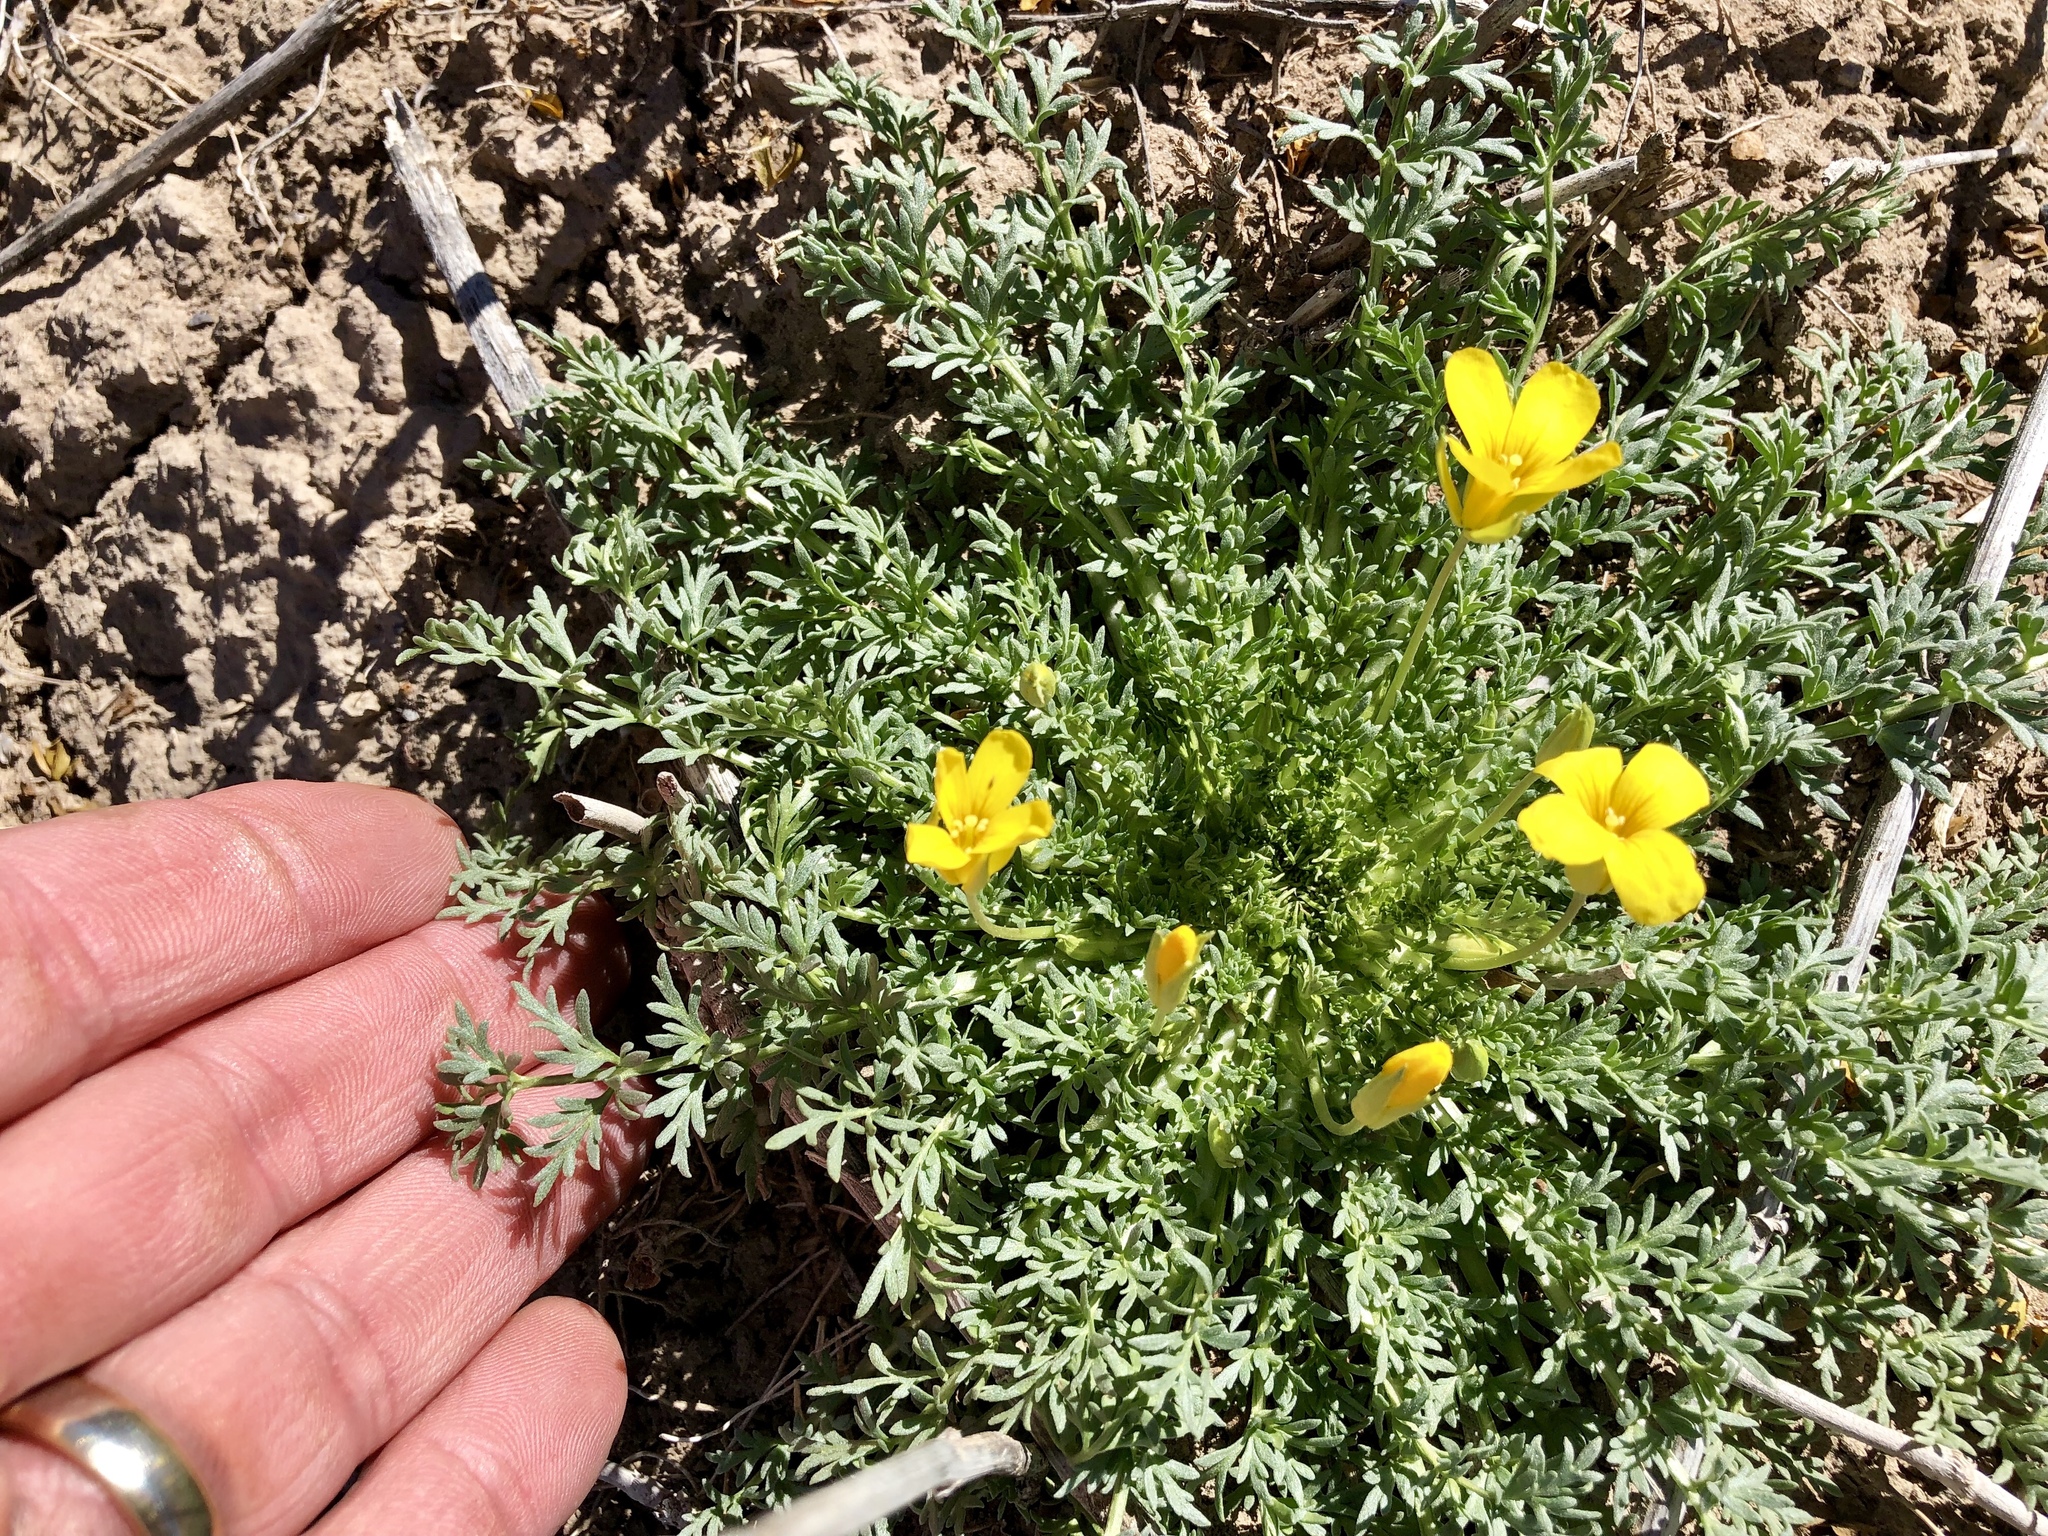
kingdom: Plantae
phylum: Tracheophyta
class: Magnoliopsida
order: Brassicales
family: Brassicaceae
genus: Selenia
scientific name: Selenia dissecta
